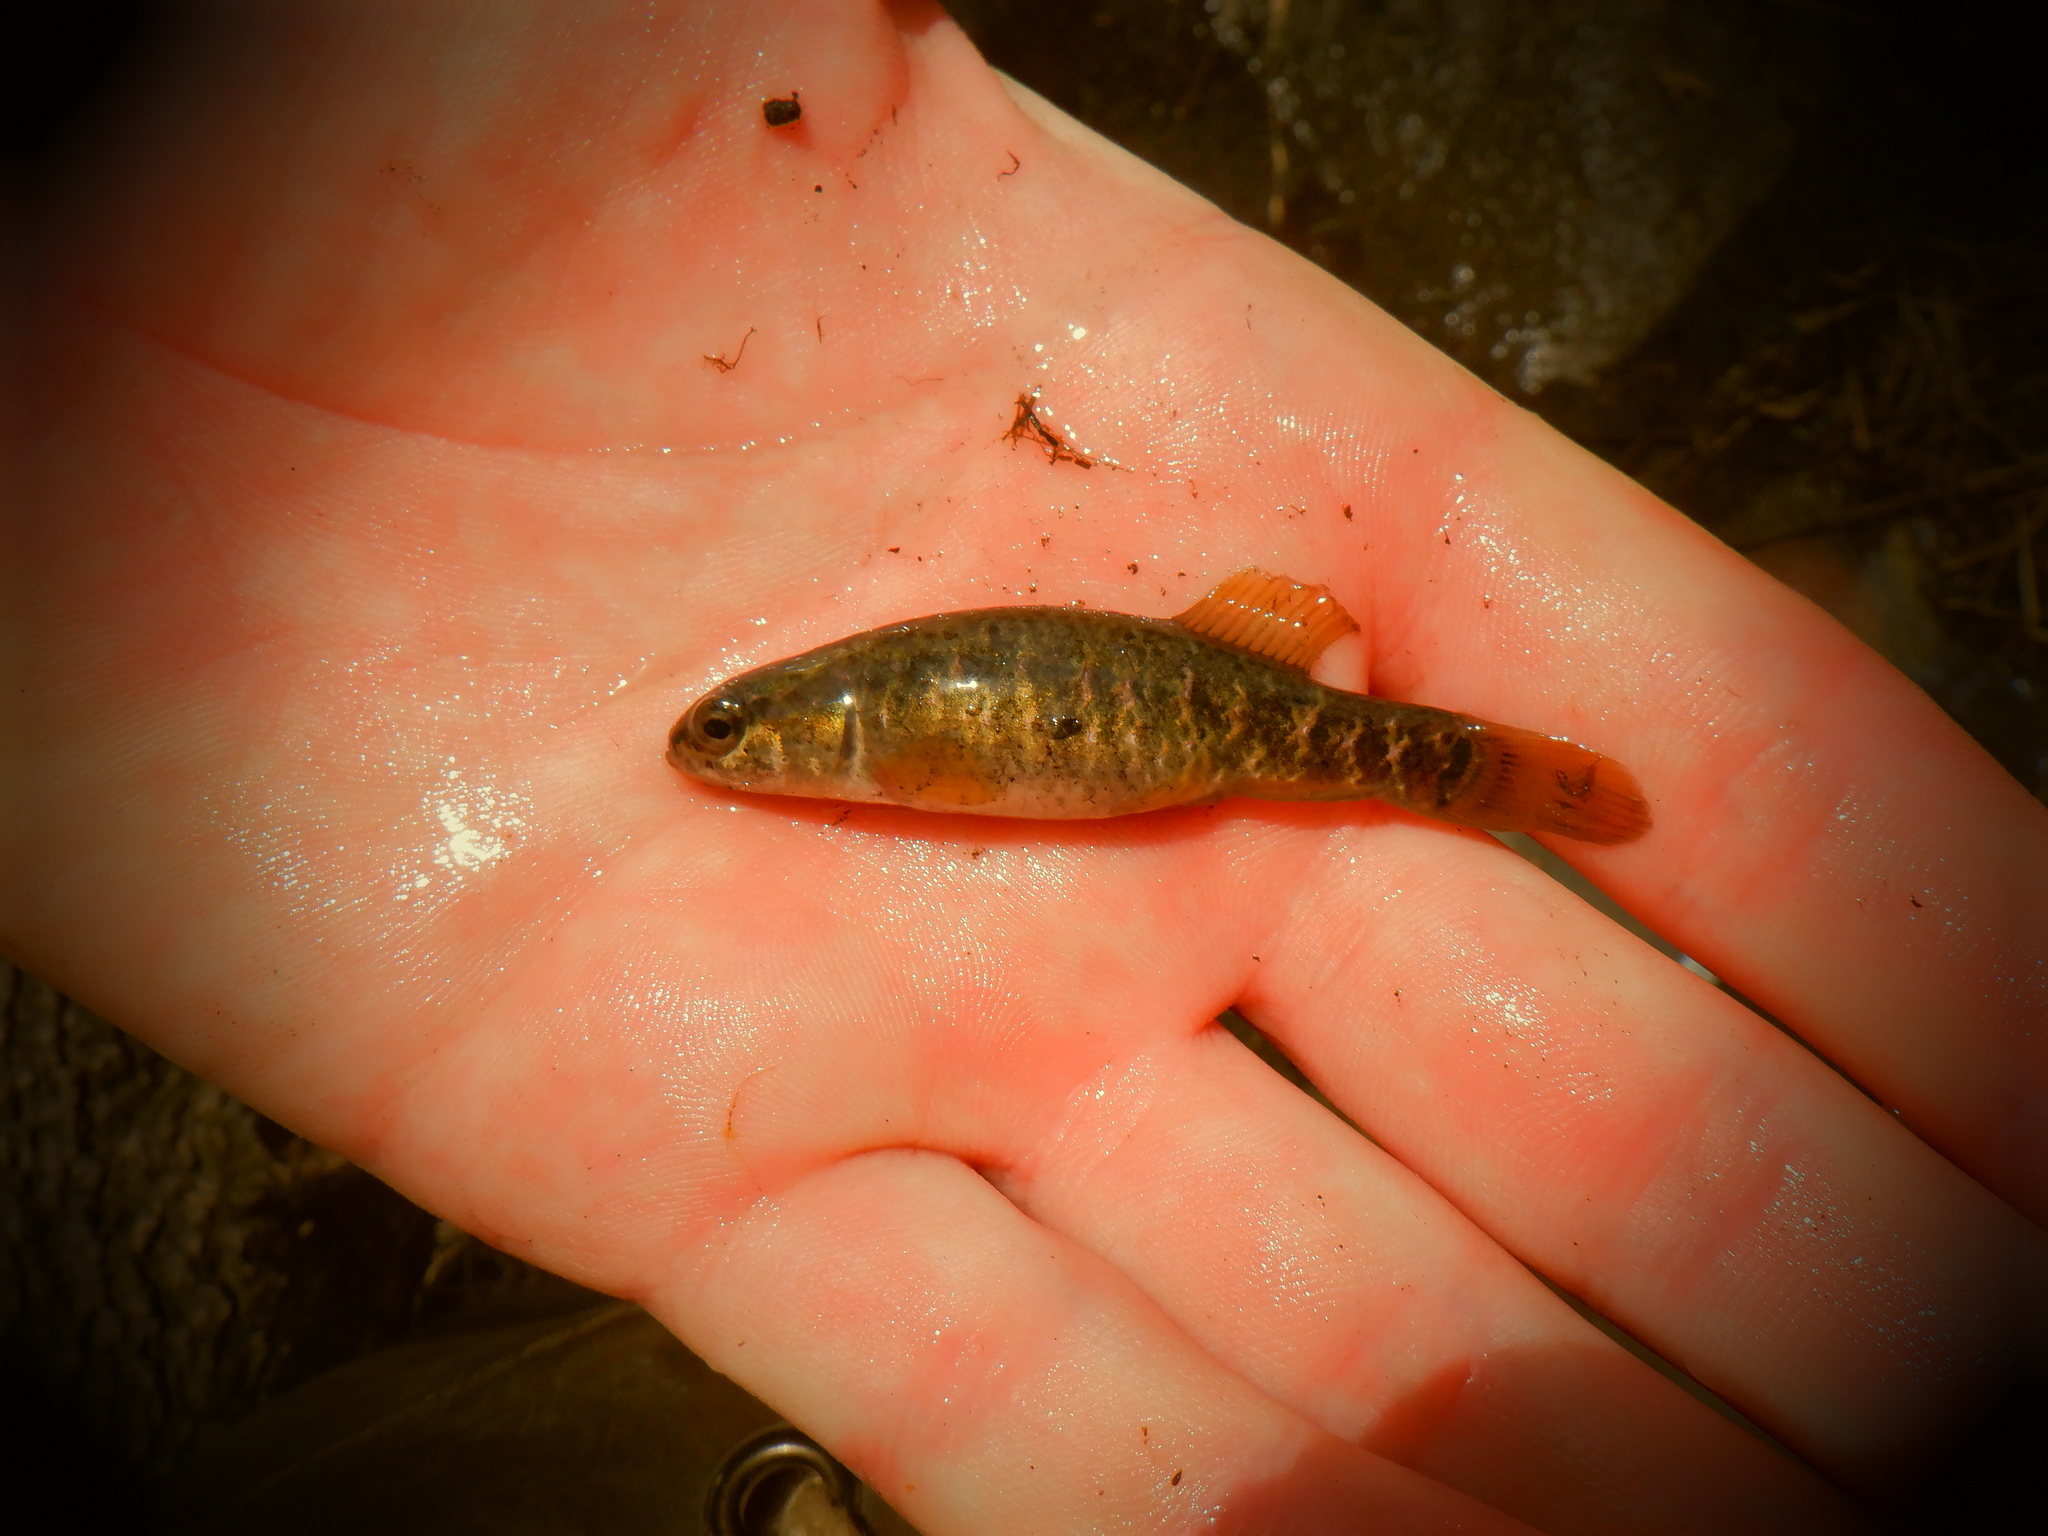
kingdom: Animalia
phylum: Chordata
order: Esociformes
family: Umbridae
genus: Umbra
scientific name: Umbra limi
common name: Central mudminnow
